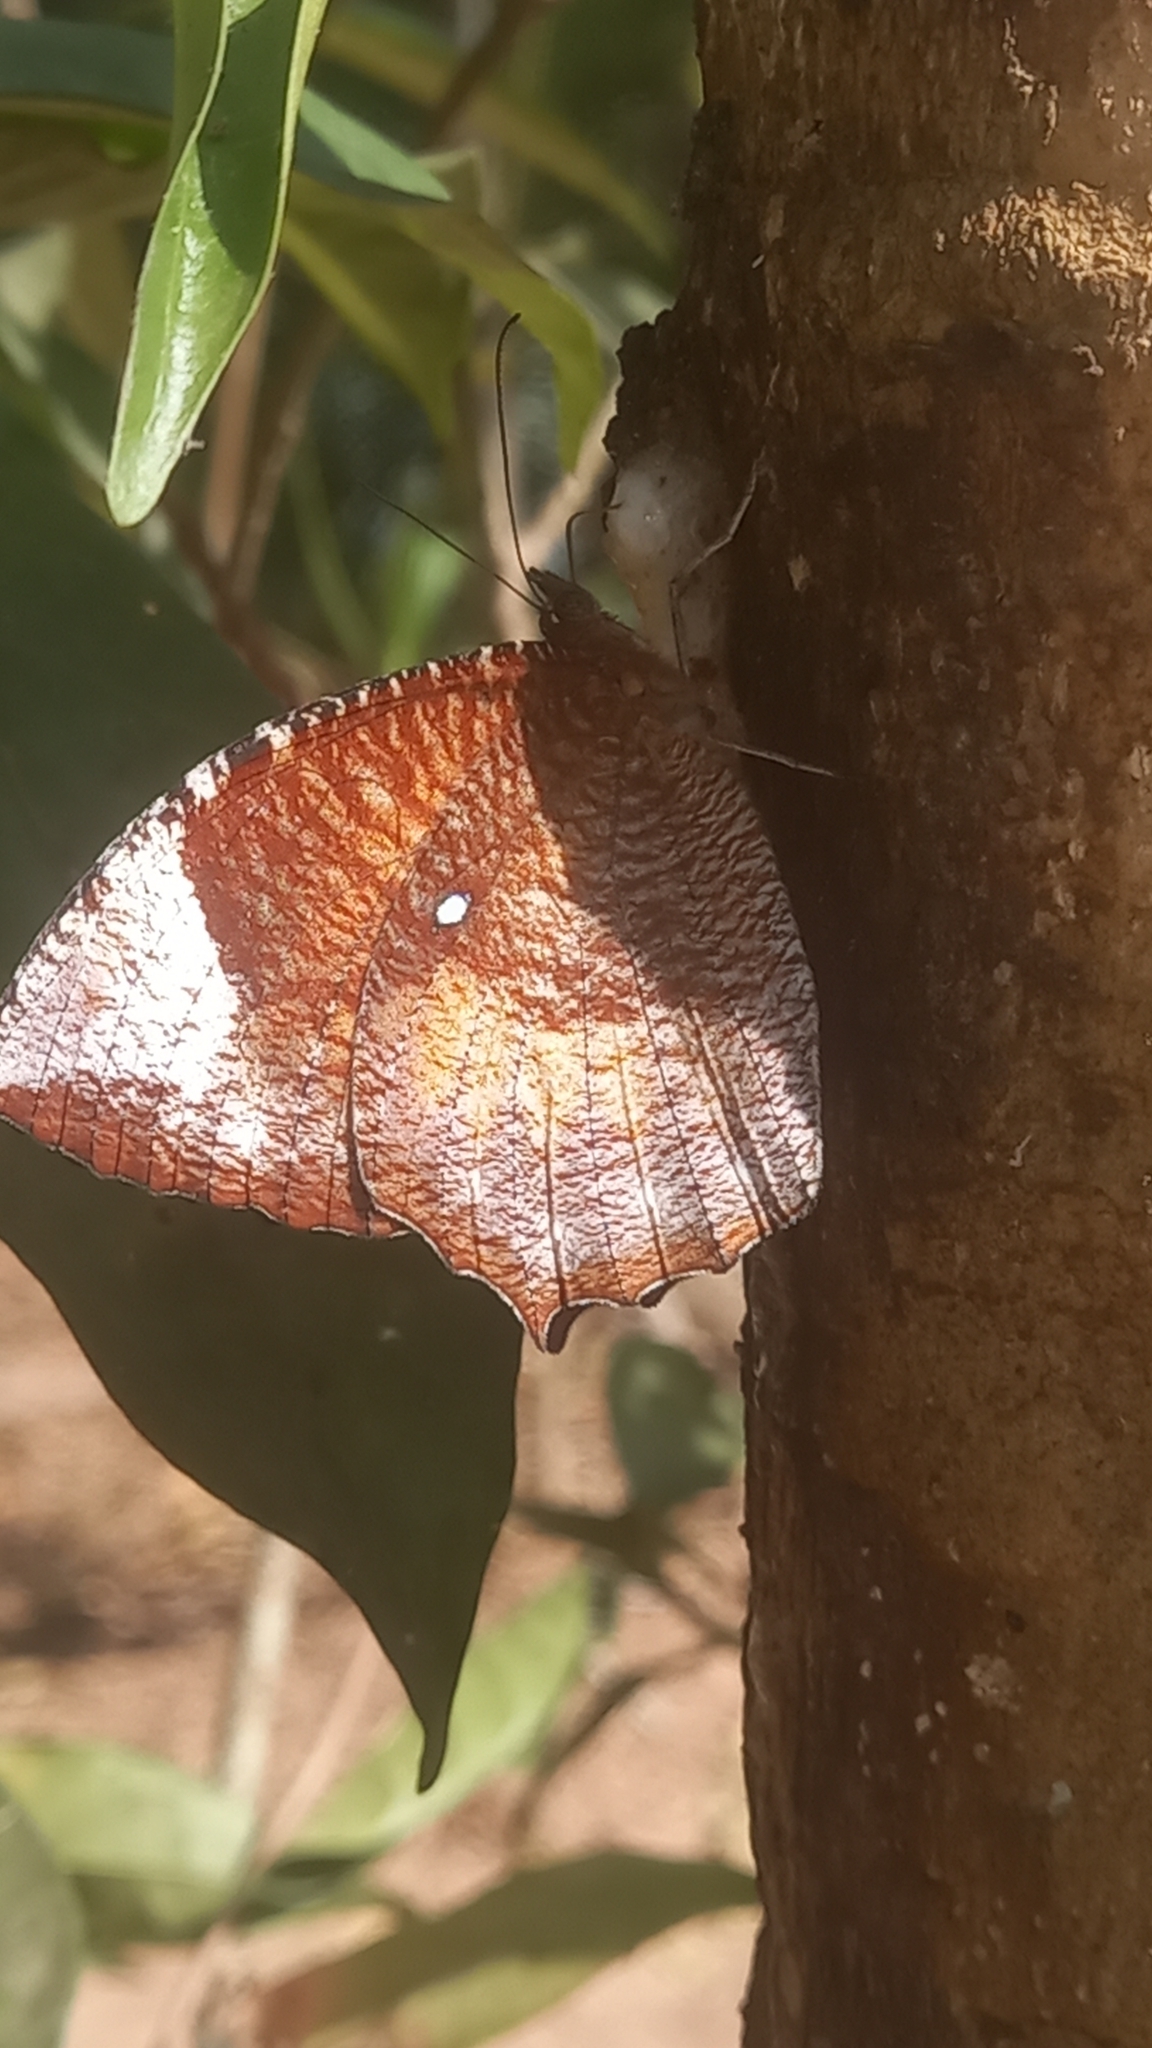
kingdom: Animalia
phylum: Arthropoda
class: Insecta
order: Lepidoptera
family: Nymphalidae
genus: Elymnias
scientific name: Elymnias hypermnestra
